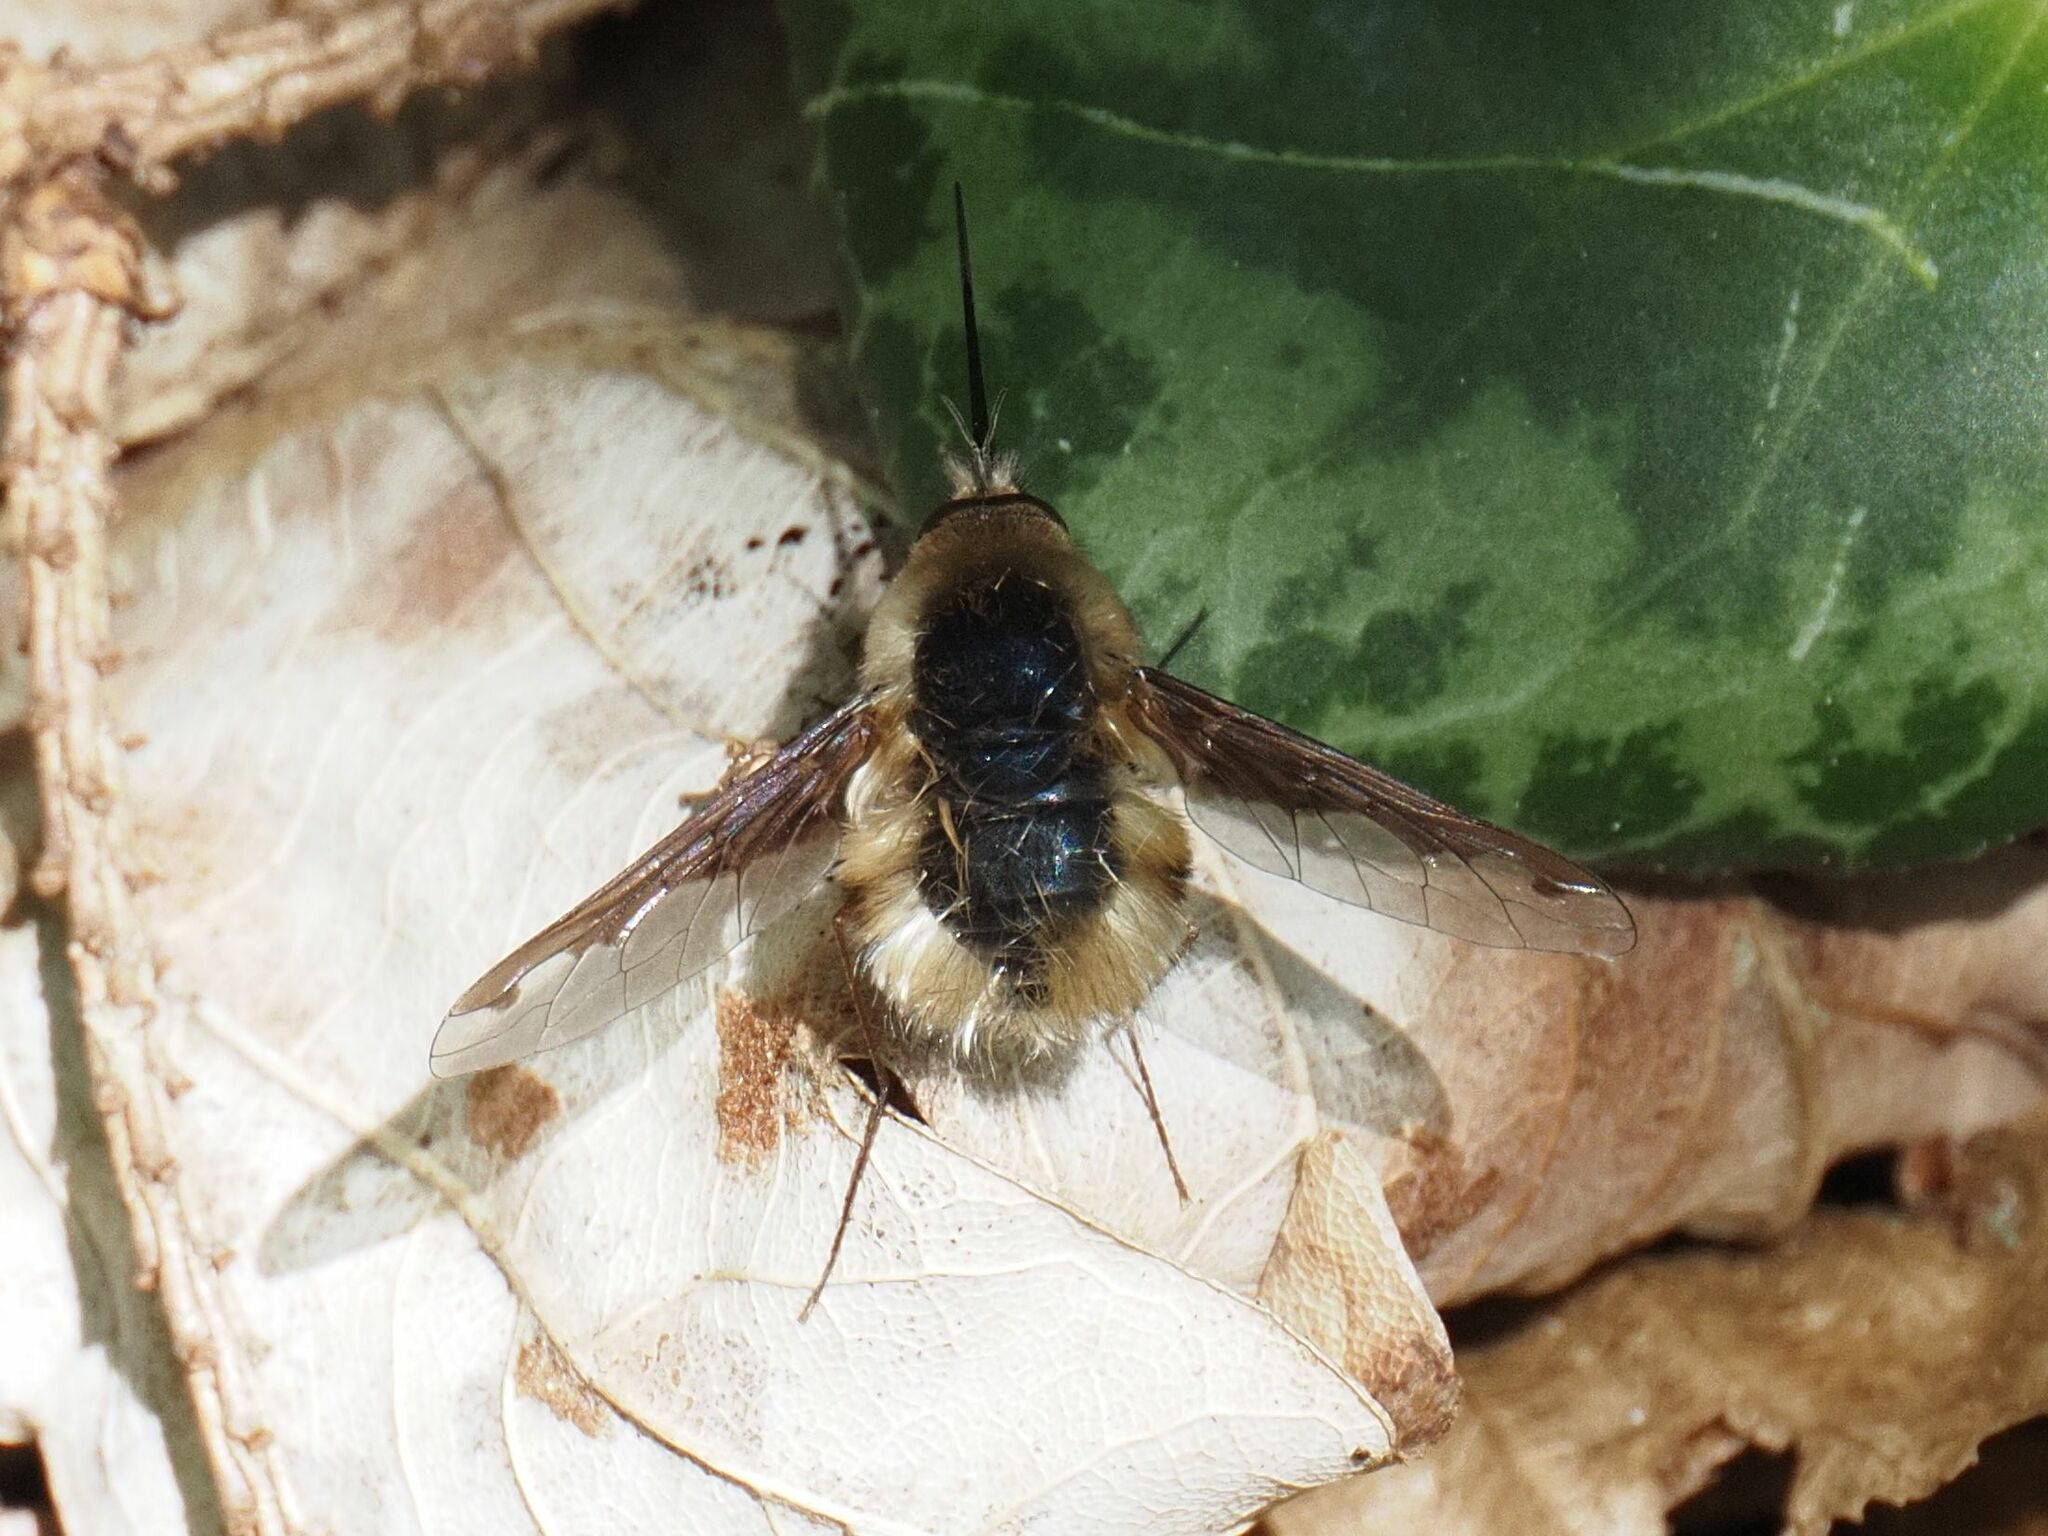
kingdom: Animalia
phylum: Arthropoda
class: Insecta
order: Diptera
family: Bombyliidae
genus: Bombylius
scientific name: Bombylius major
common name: Bee fly
